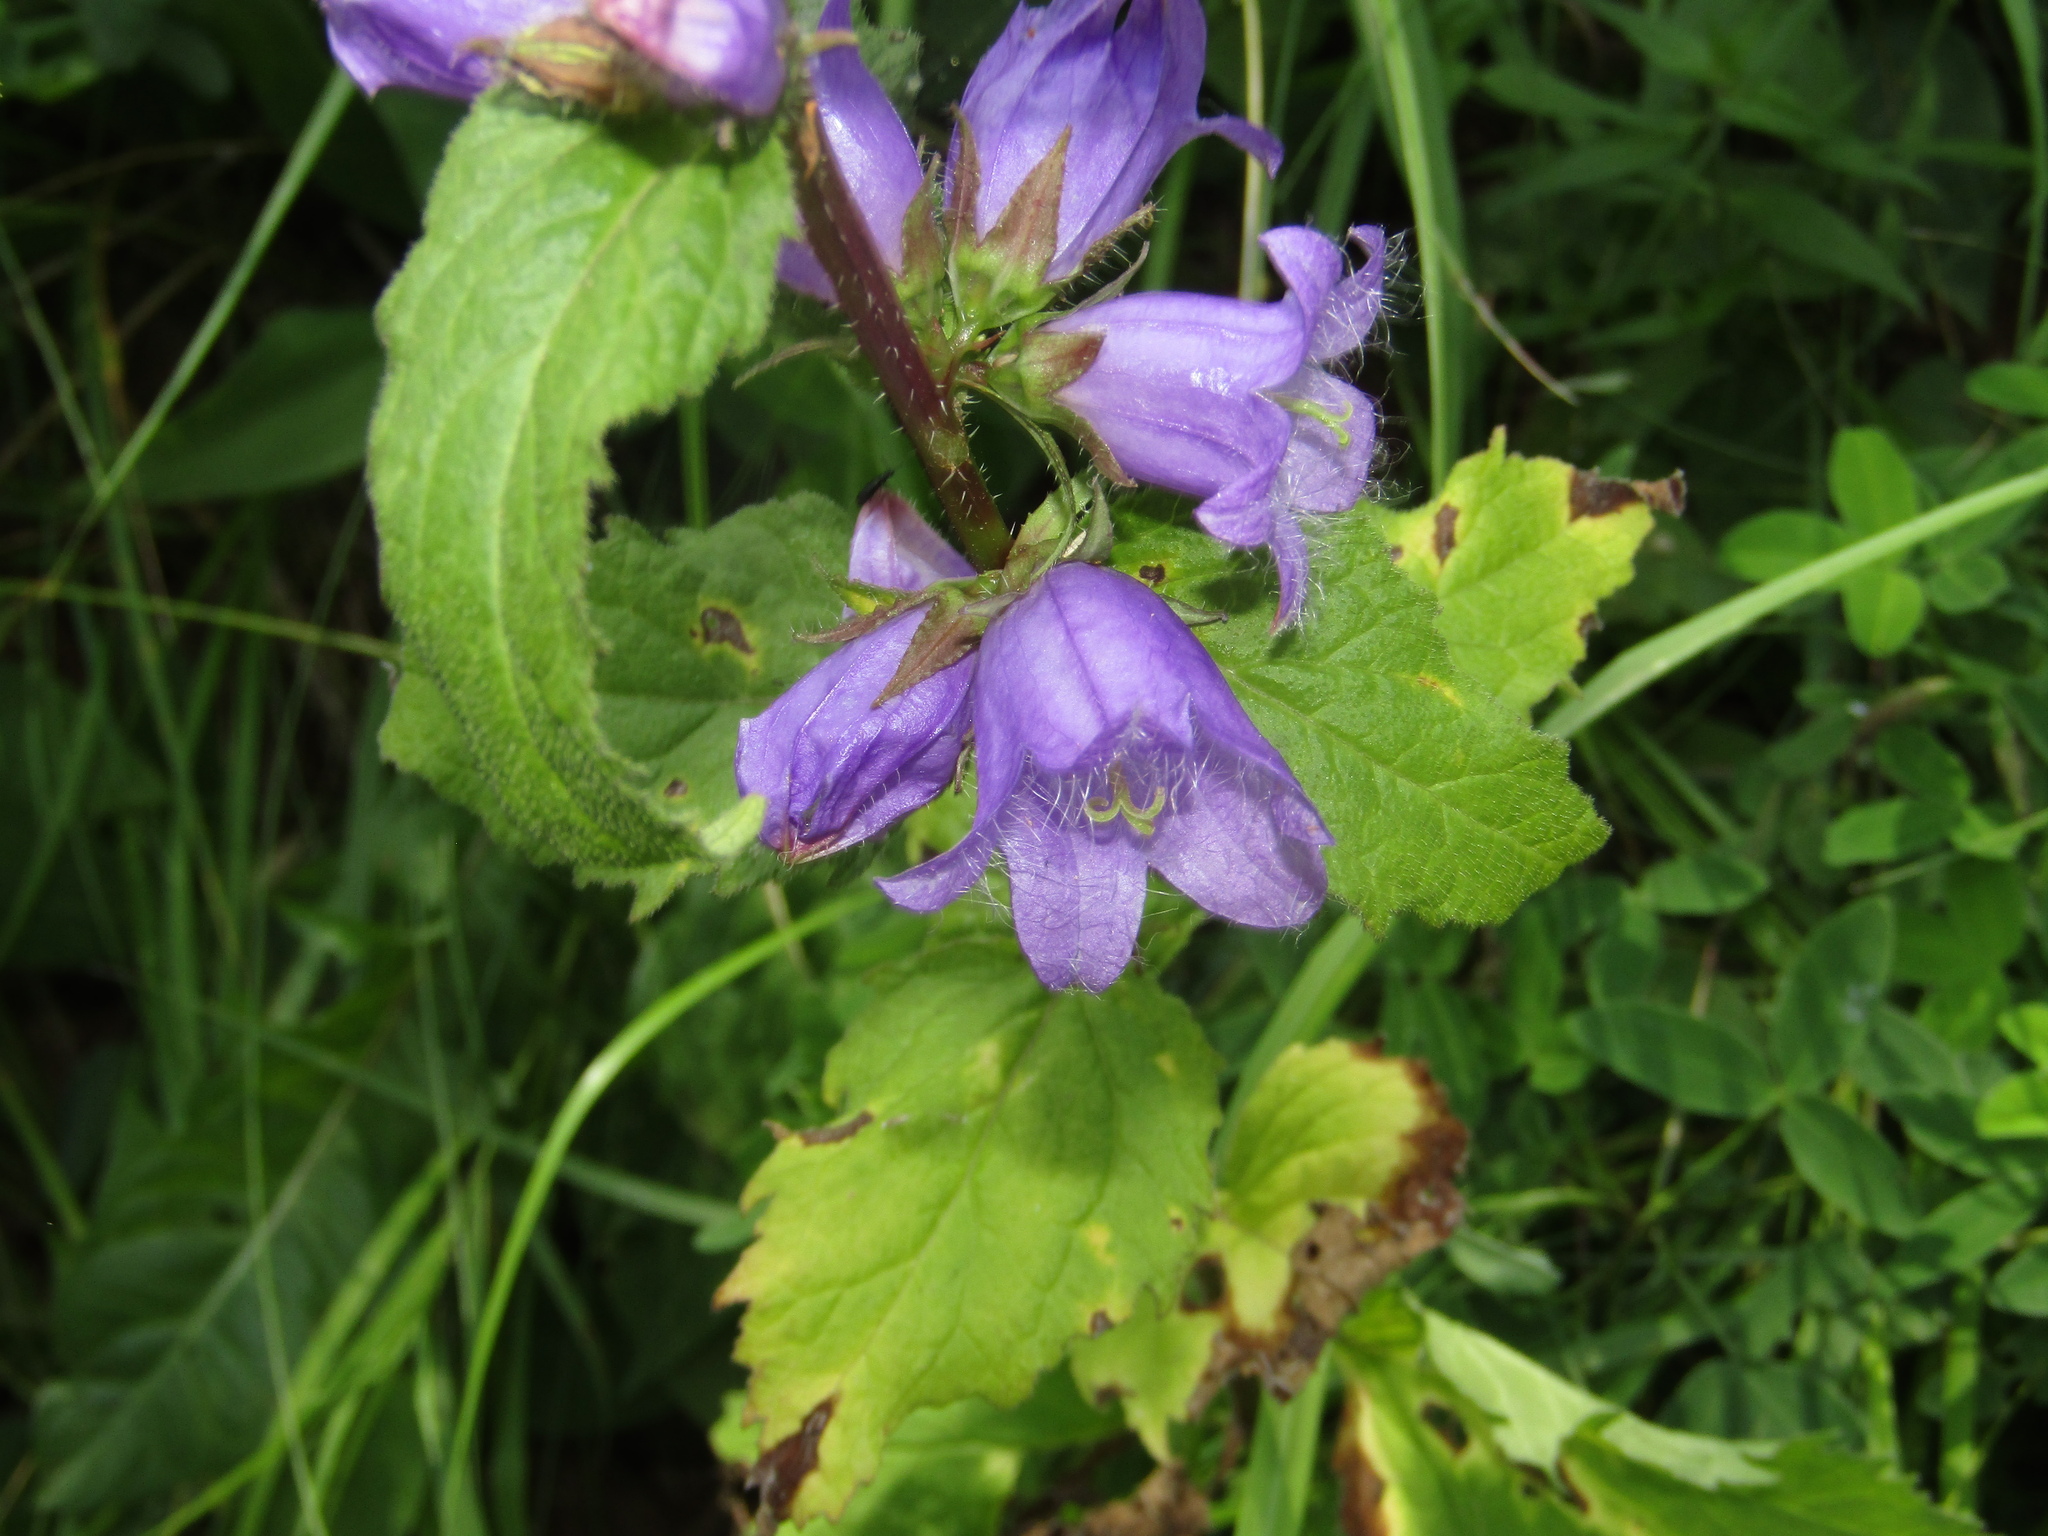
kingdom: Plantae
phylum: Tracheophyta
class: Magnoliopsida
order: Asterales
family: Campanulaceae
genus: Campanula
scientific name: Campanula trachelium
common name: Nettle-leaved bellflower
